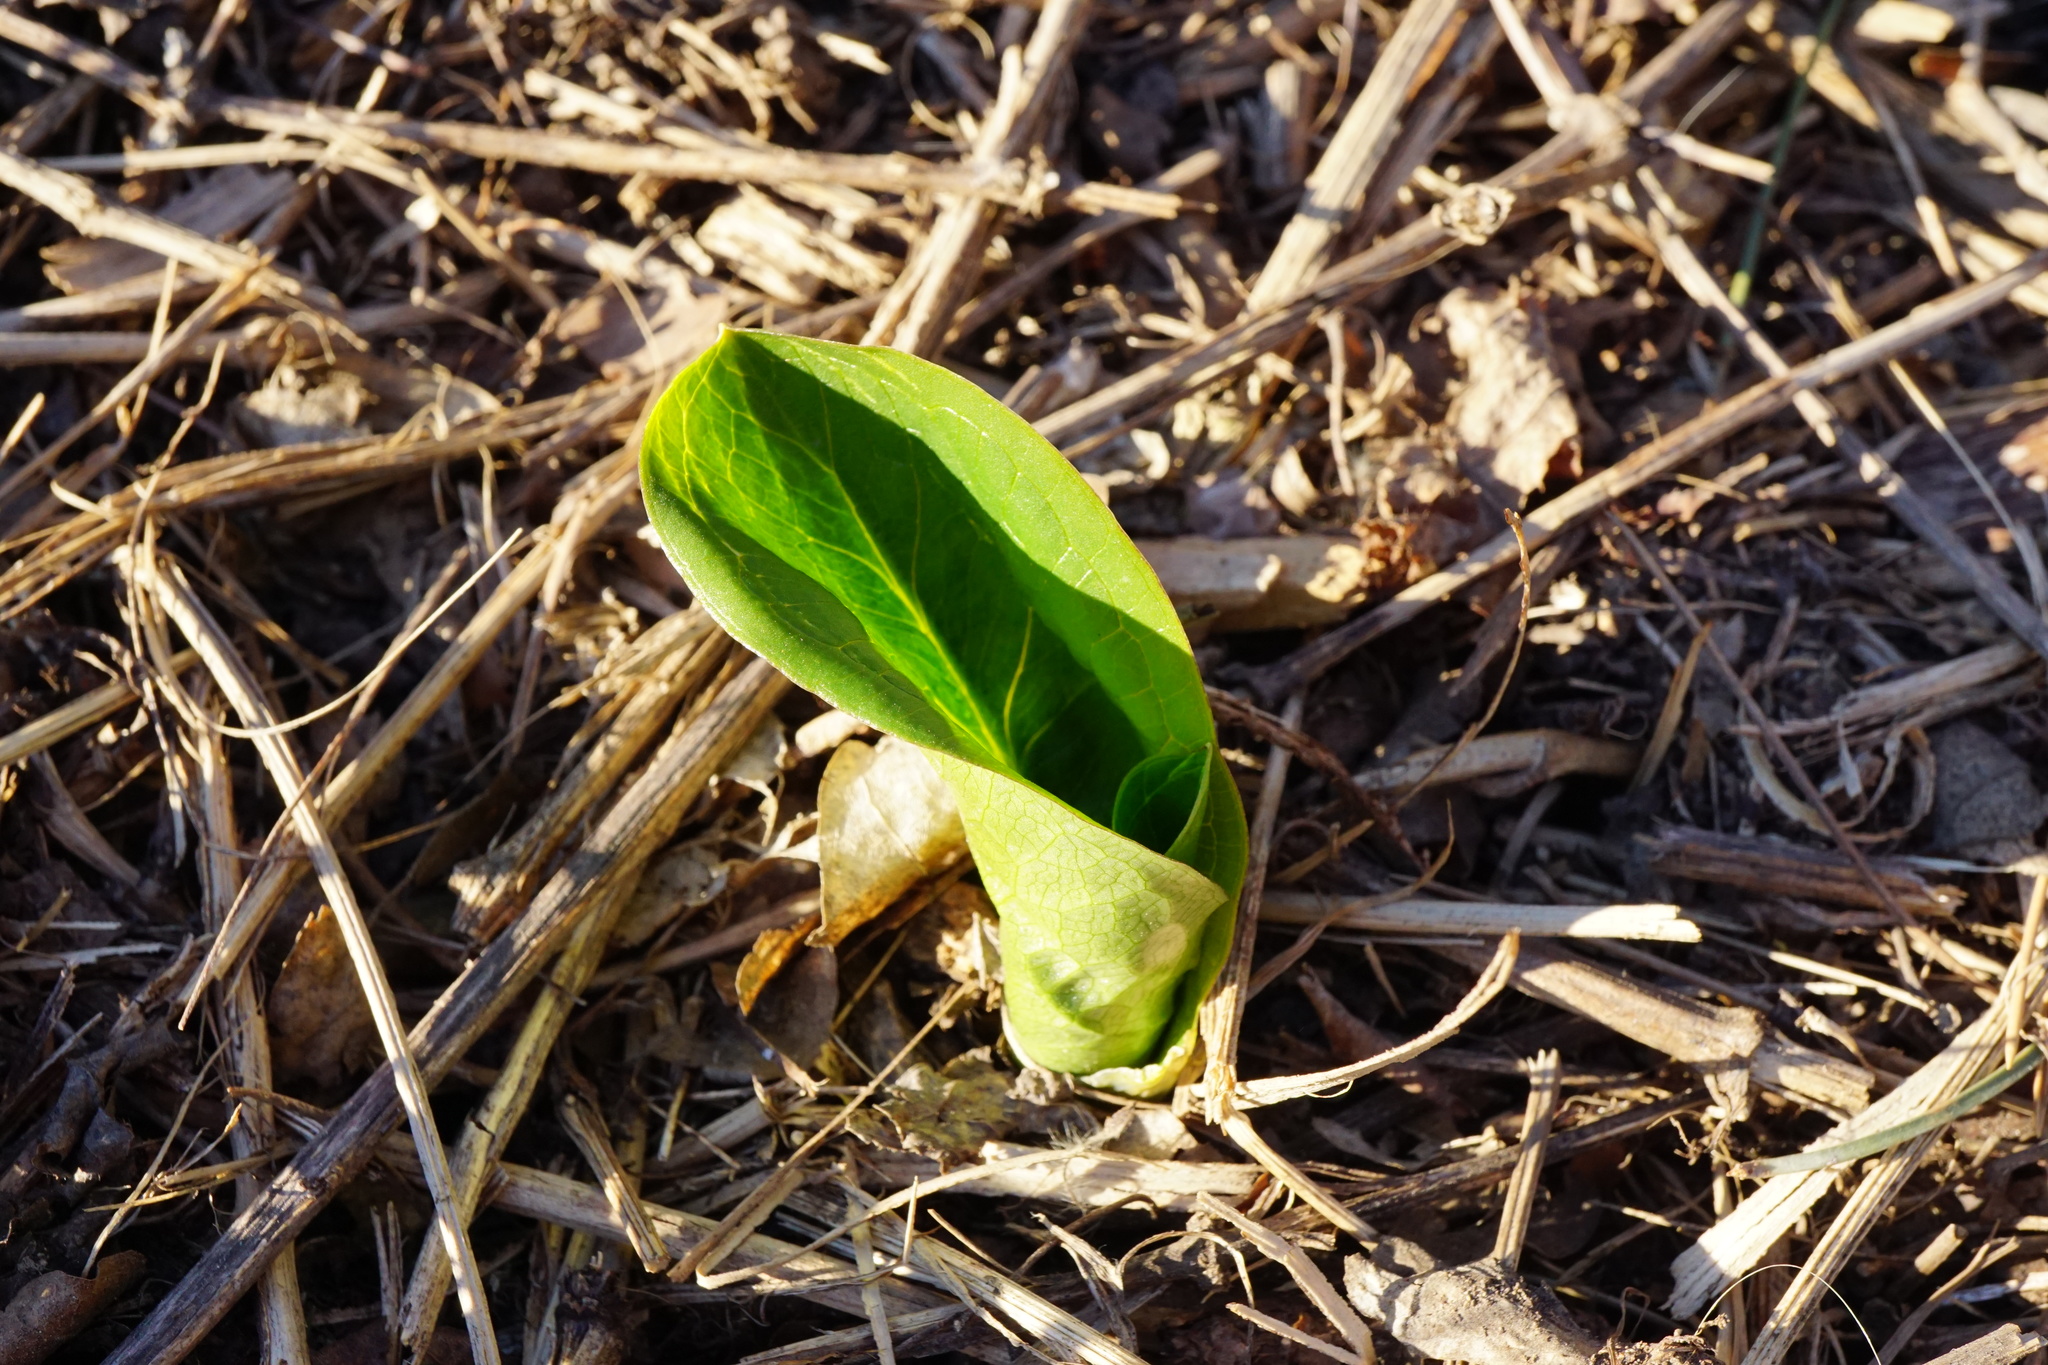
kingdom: Plantae
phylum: Tracheophyta
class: Liliopsida
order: Alismatales
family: Araceae
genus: Arum
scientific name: Arum cylindraceum
